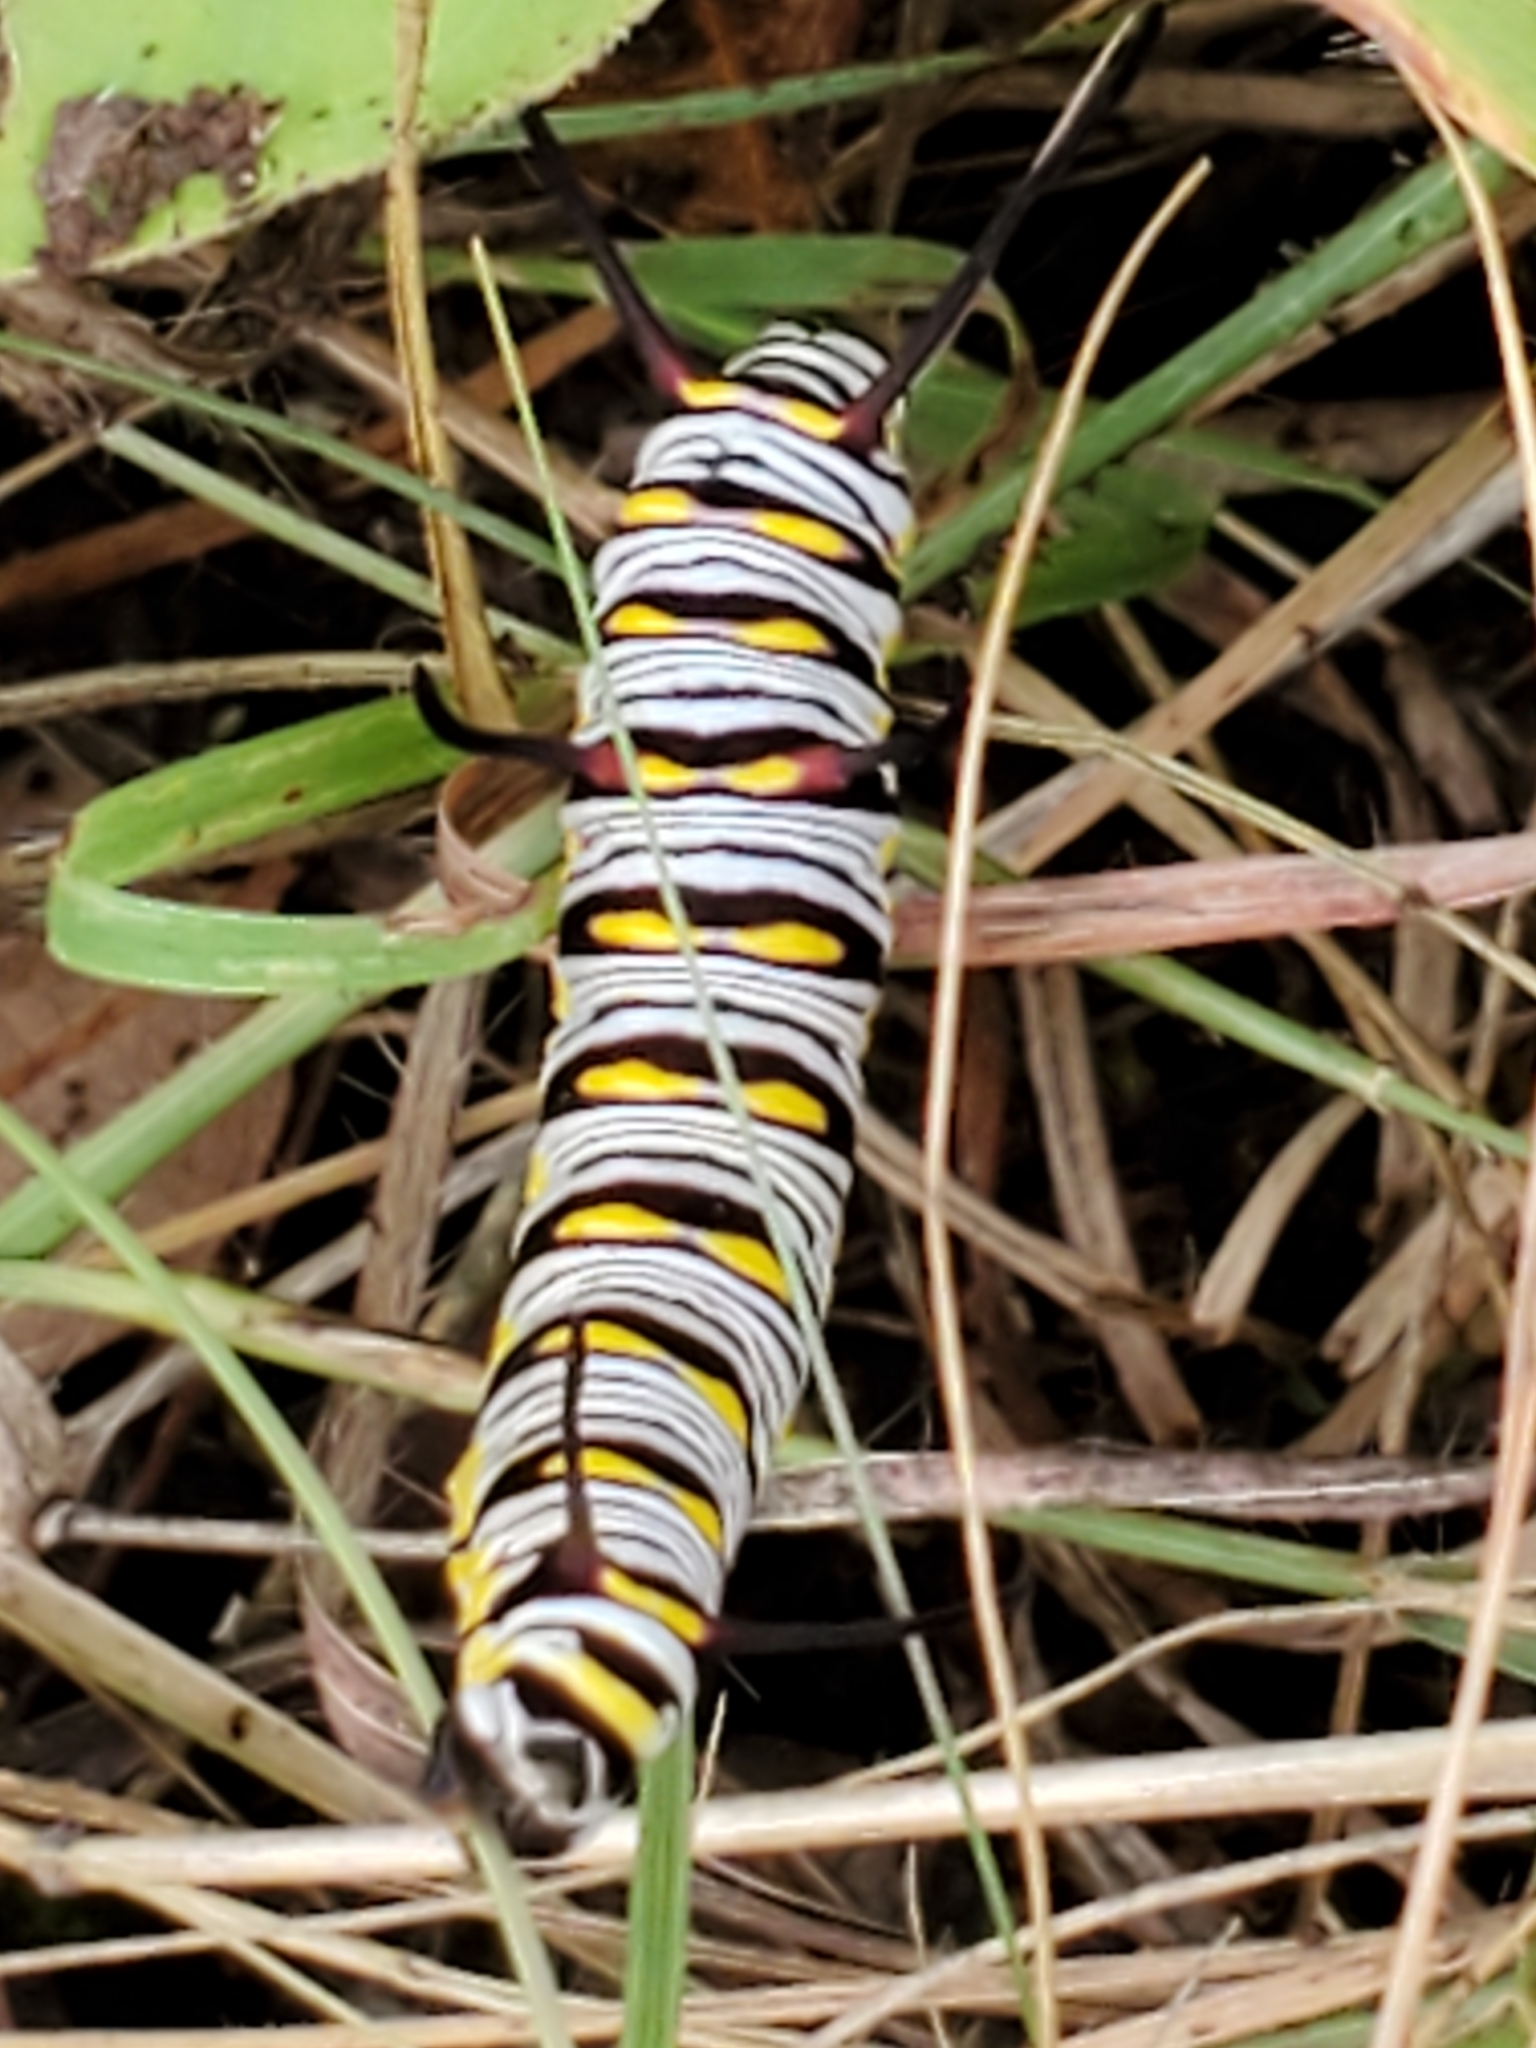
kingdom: Animalia
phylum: Arthropoda
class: Insecta
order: Lepidoptera
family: Nymphalidae
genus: Danaus
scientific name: Danaus gilippus
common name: Queen
